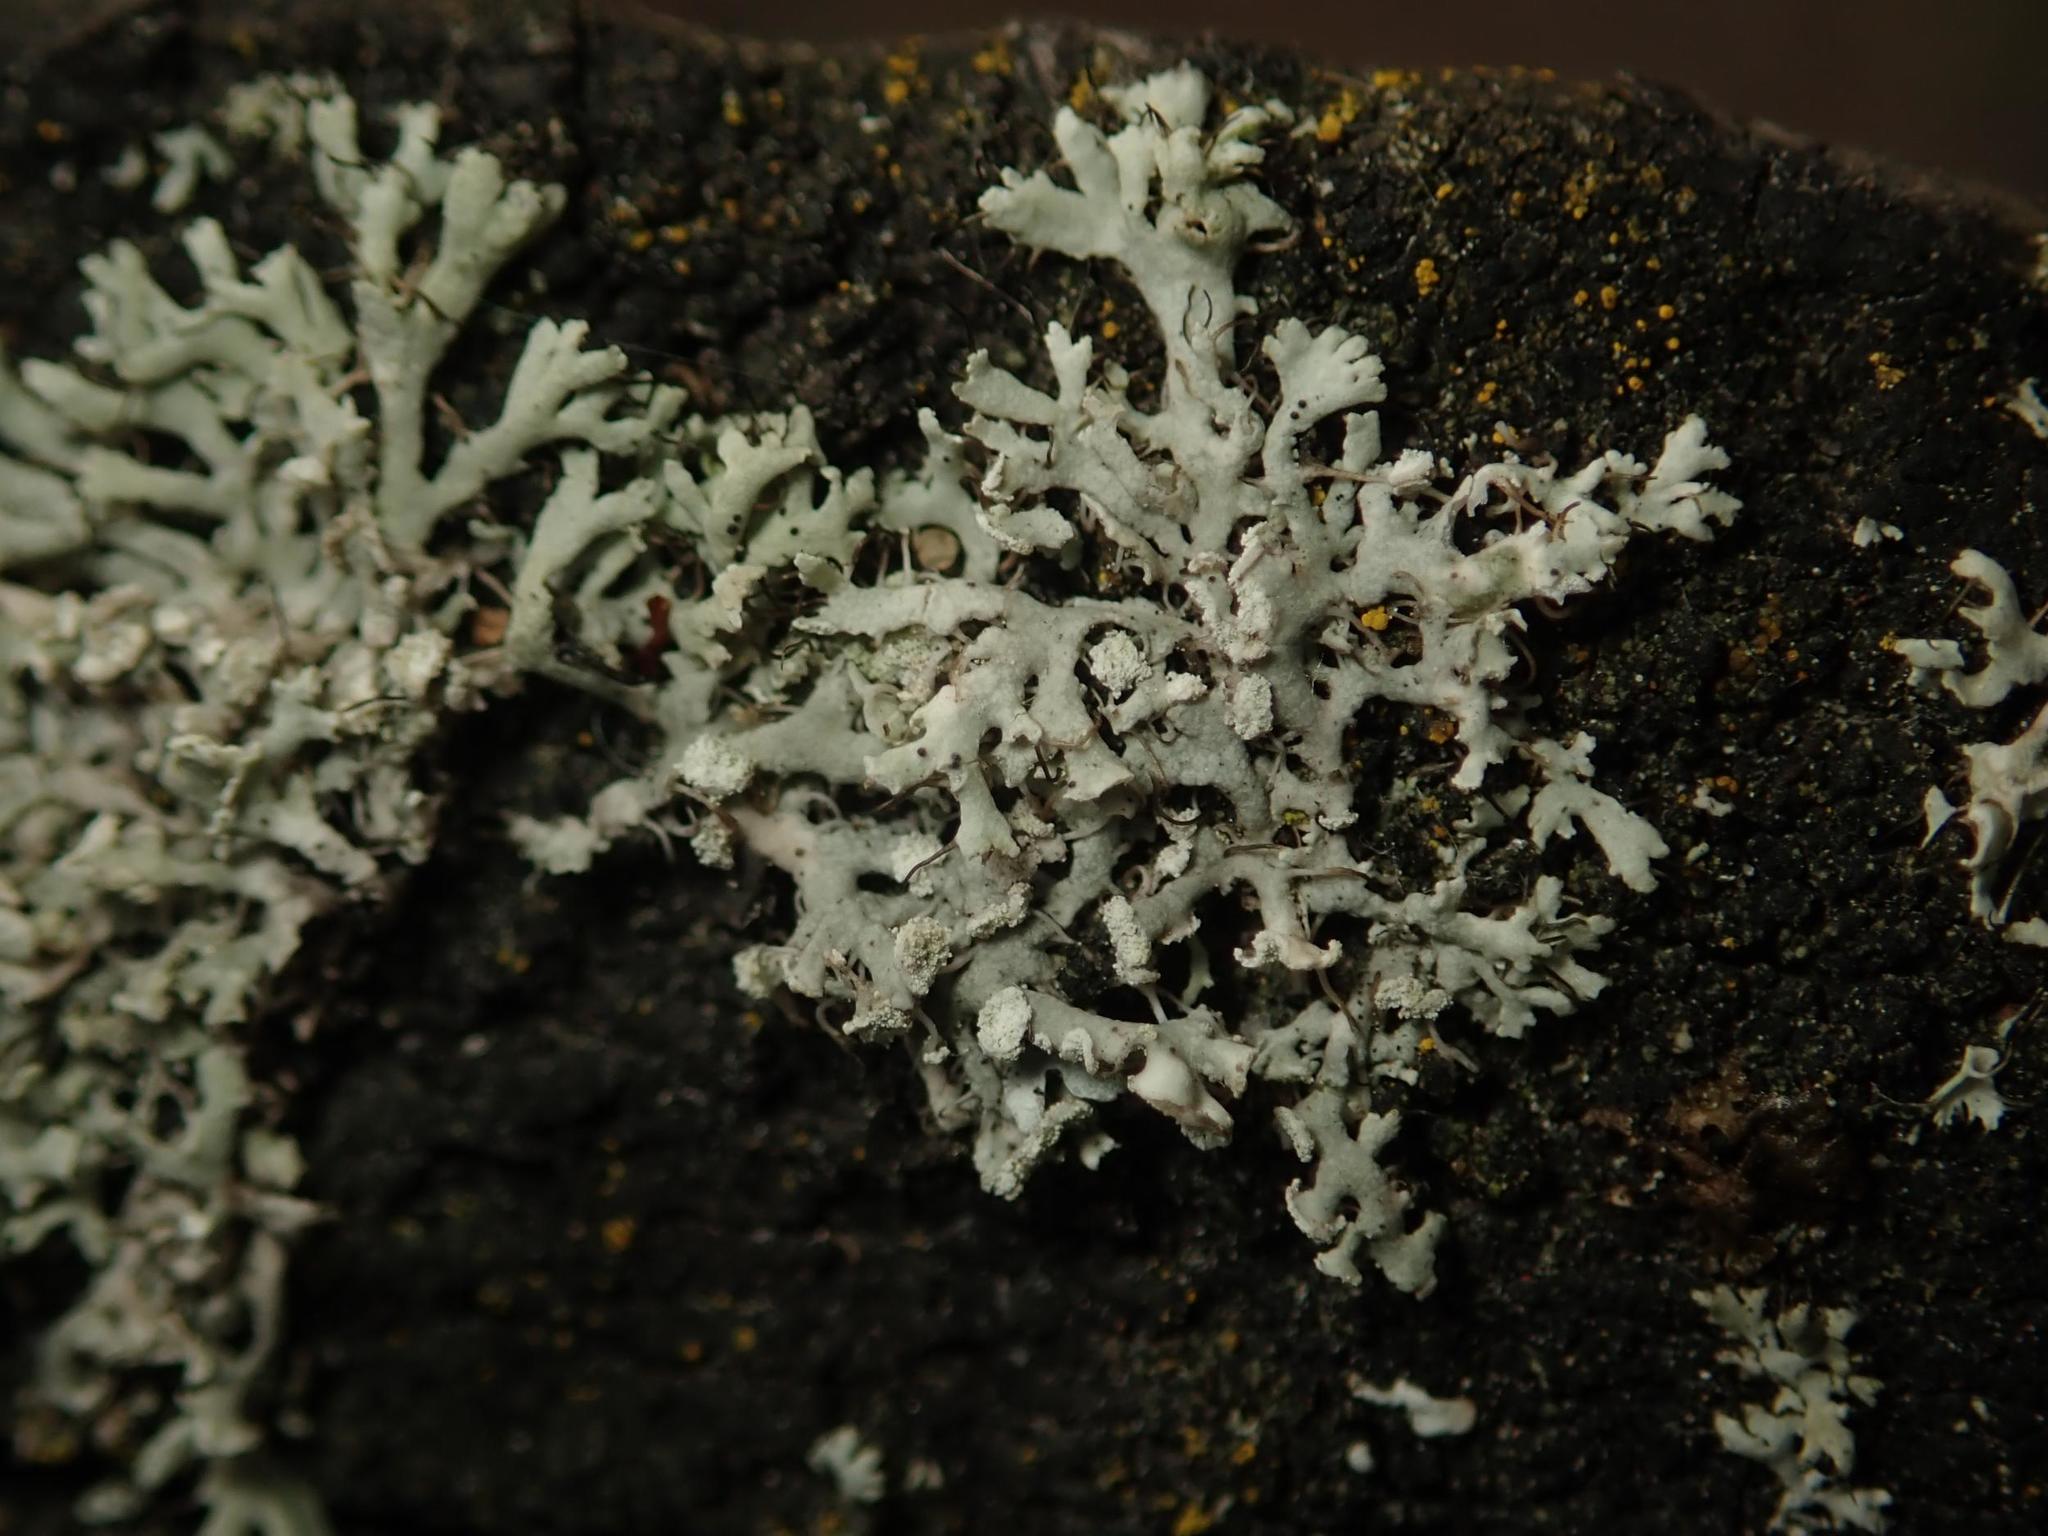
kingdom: Fungi
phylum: Ascomycota
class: Lecanoromycetes
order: Caliciales
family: Physciaceae
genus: Physcia
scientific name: Physcia tenella
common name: Fringed rosette lichen
